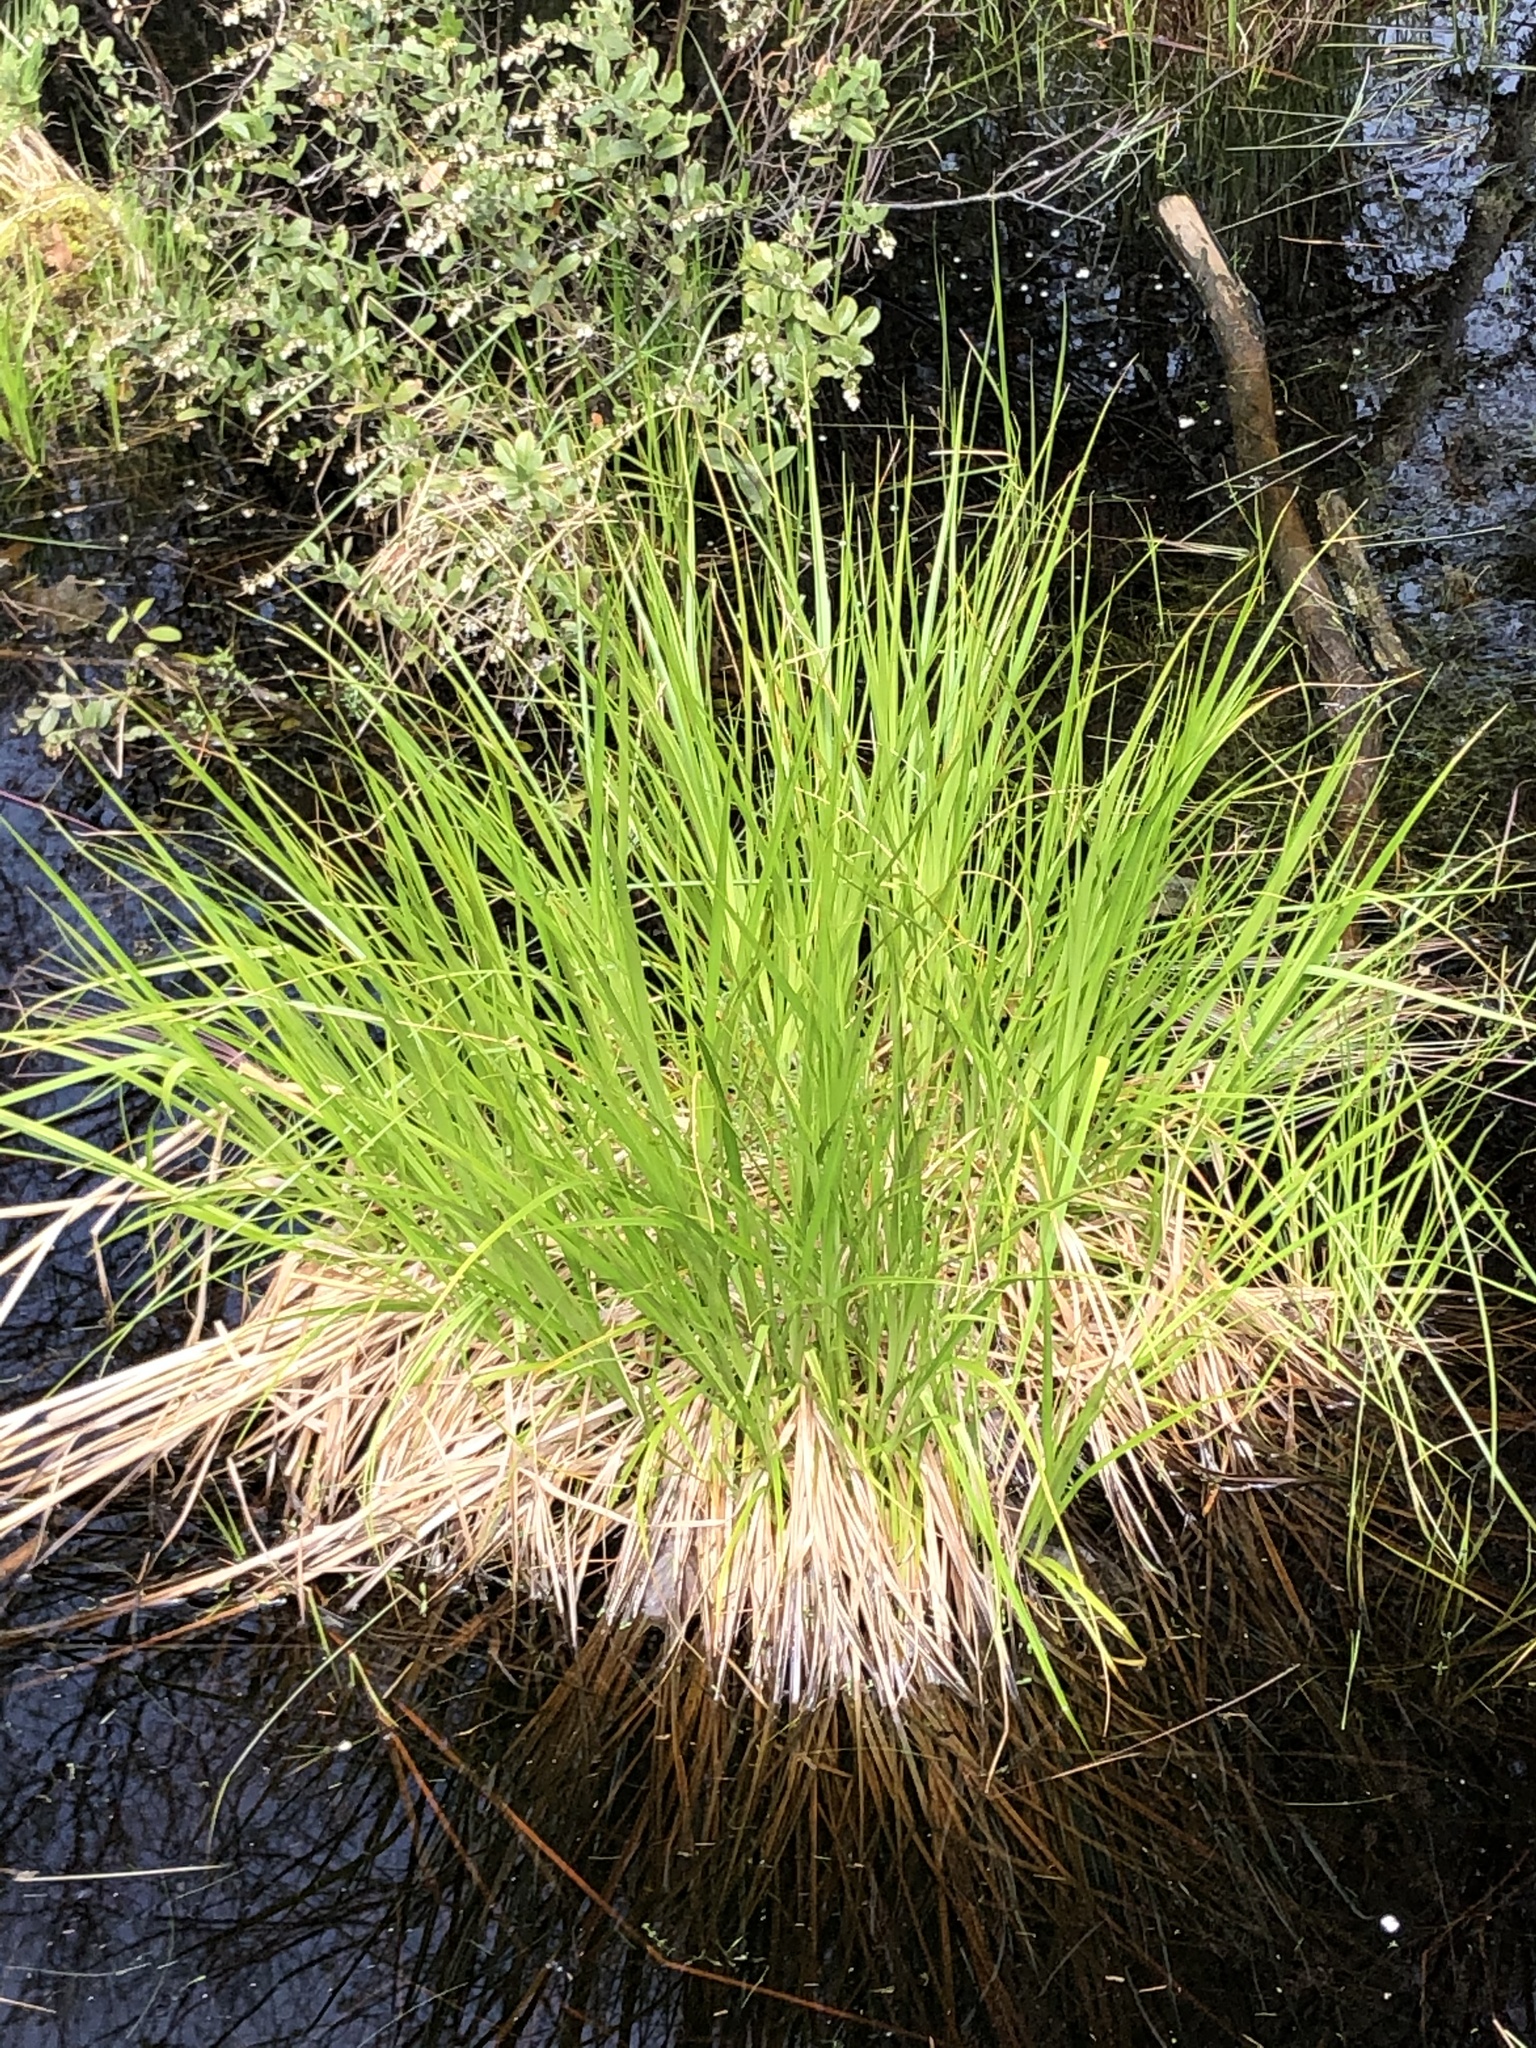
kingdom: Plantae
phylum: Tracheophyta
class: Liliopsida
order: Poales
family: Cyperaceae
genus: Carex
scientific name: Carex stricta
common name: Hummock sedge
